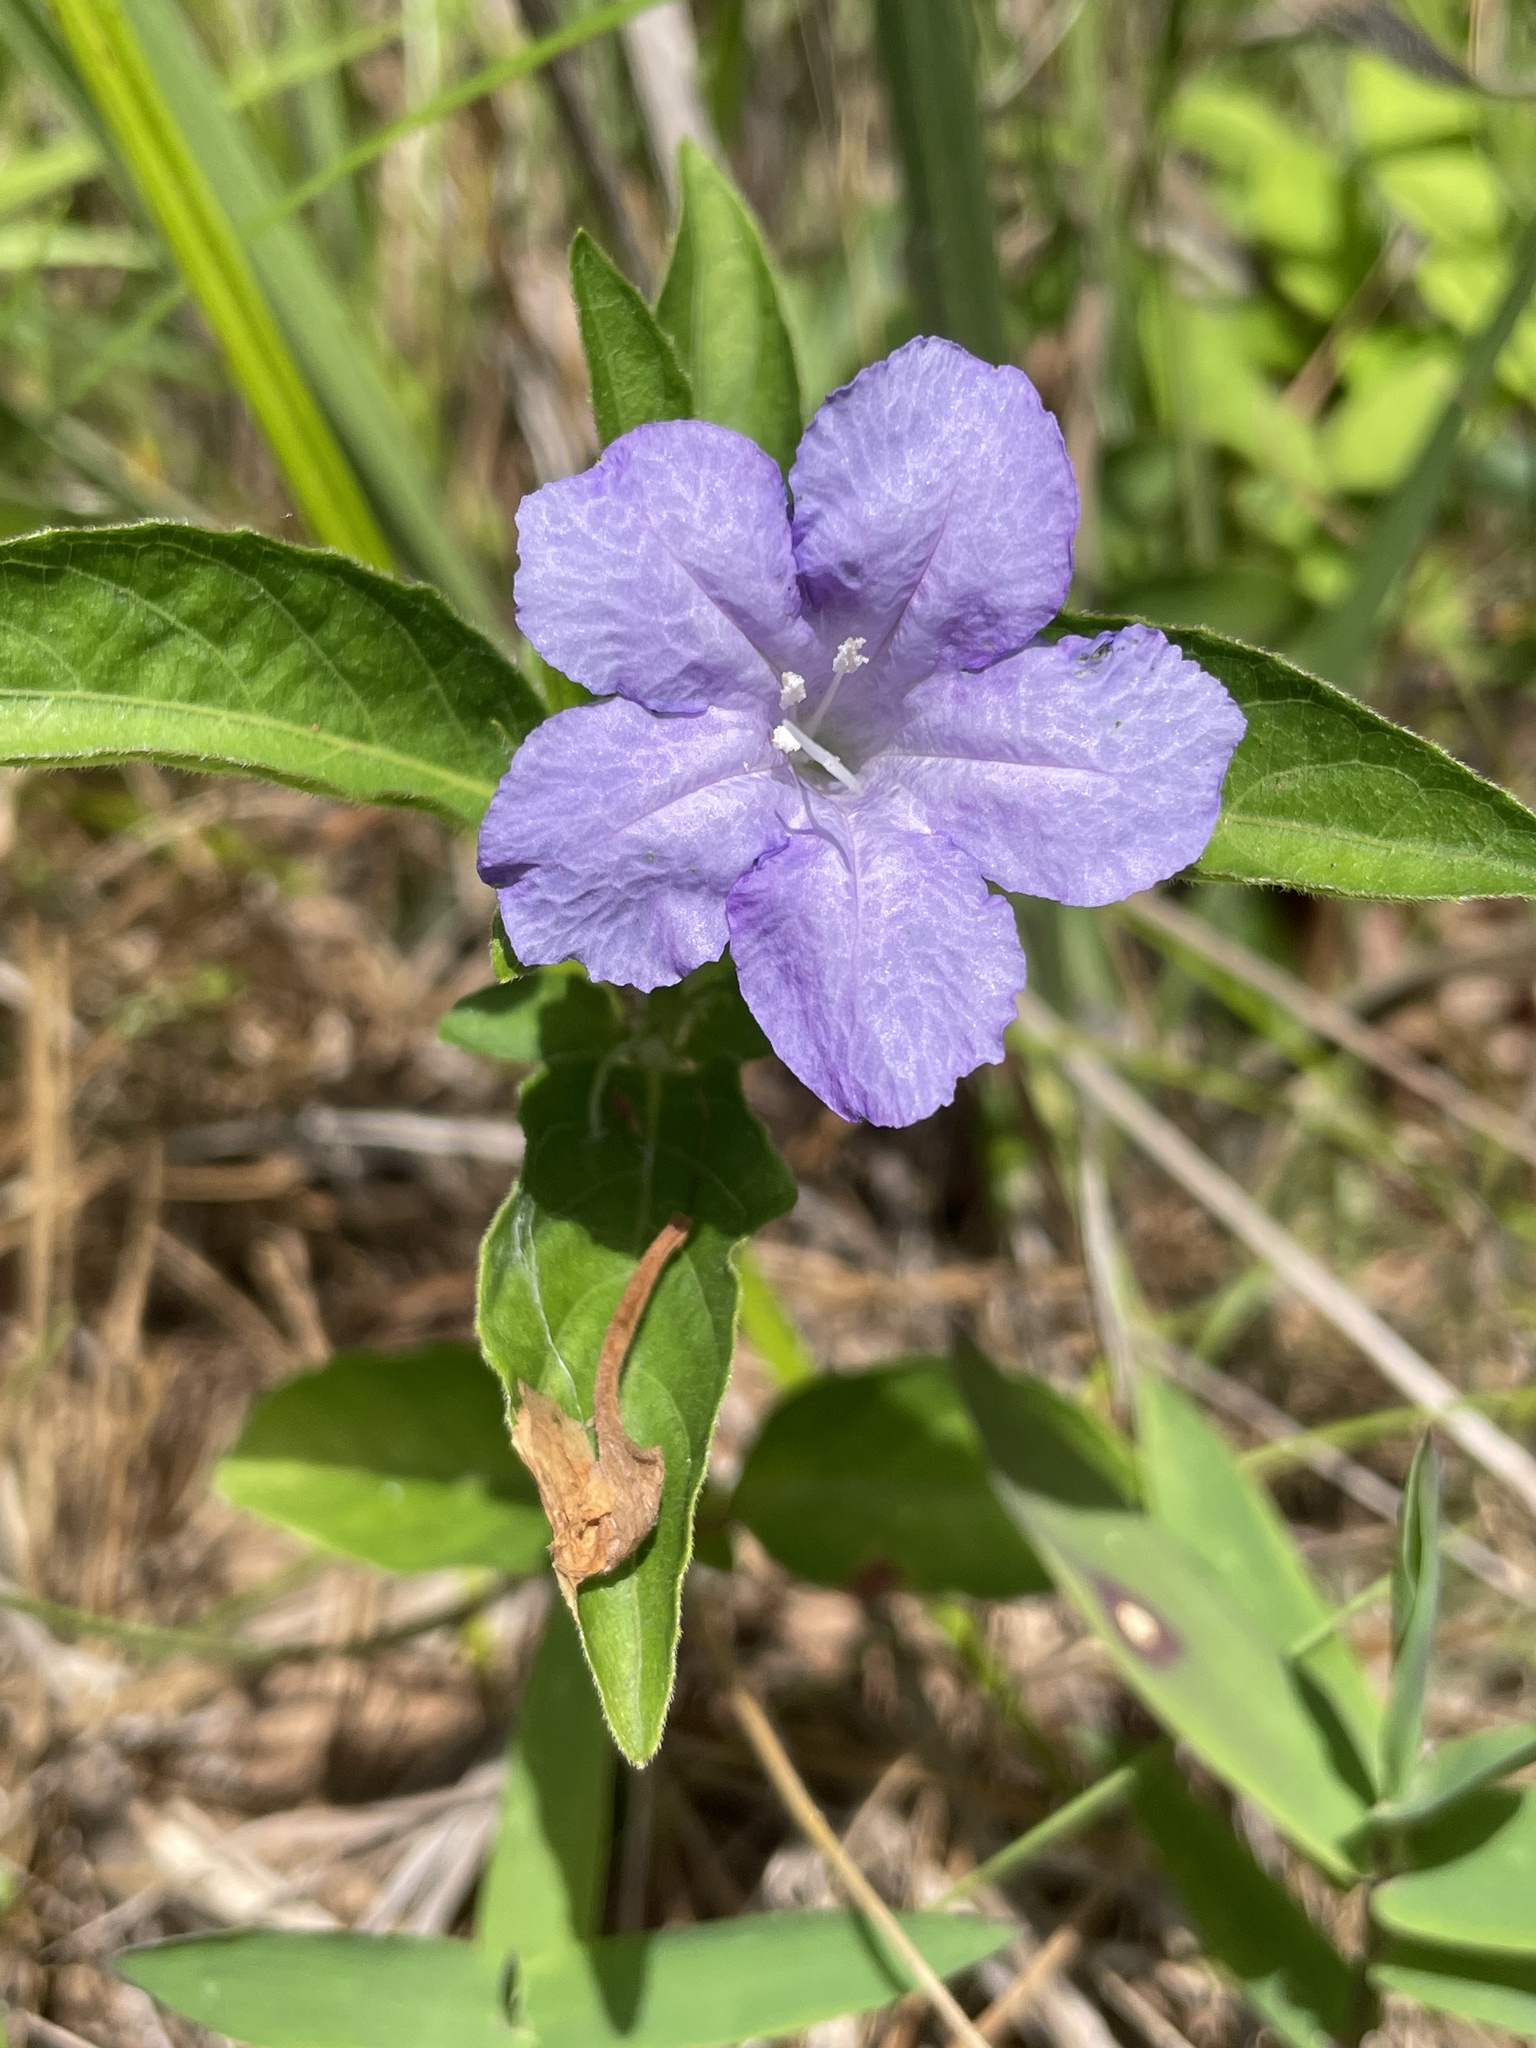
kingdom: Plantae
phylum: Tracheophyta
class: Magnoliopsida
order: Lamiales
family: Acanthaceae
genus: Ruellia
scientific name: Ruellia caroliniensis
